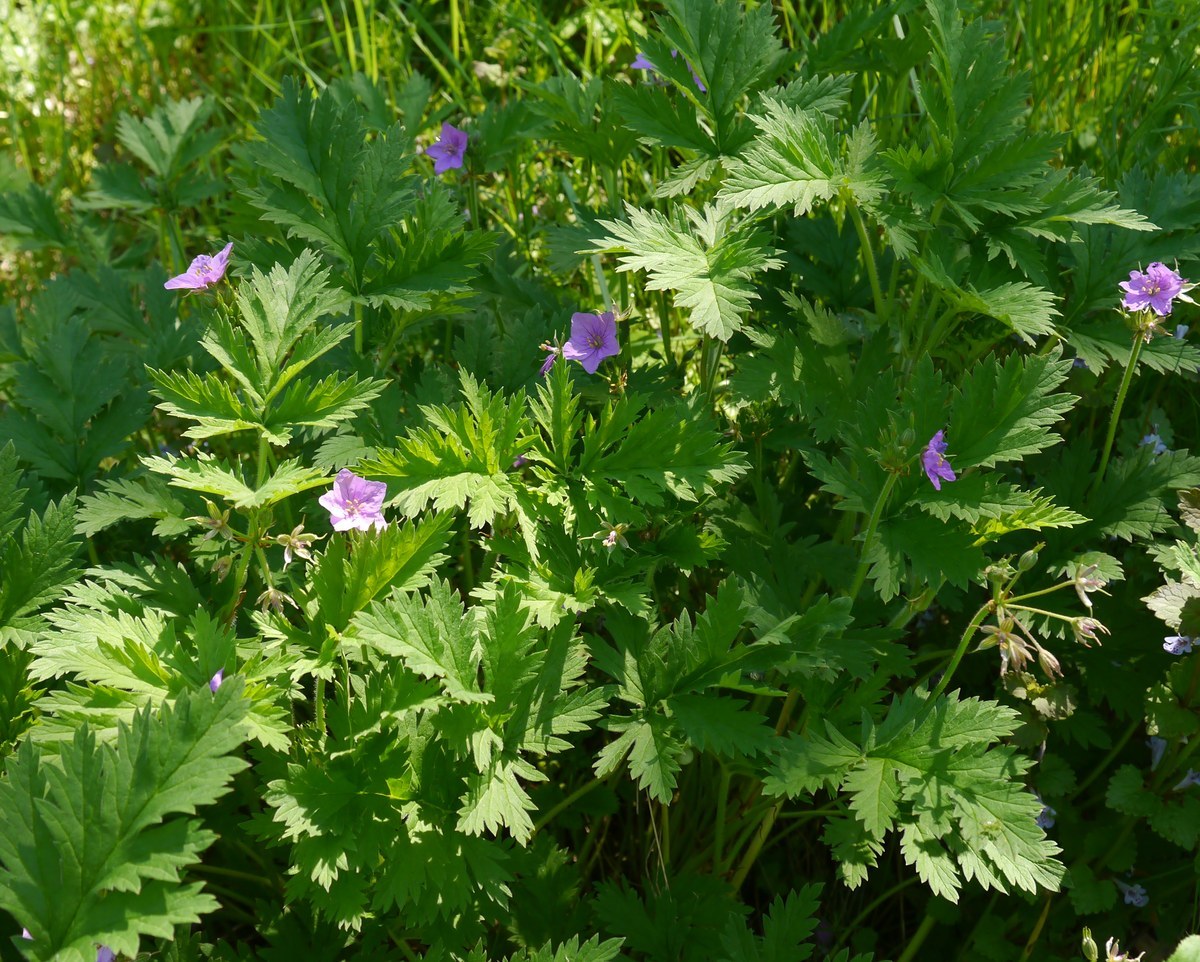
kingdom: Plantae
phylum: Tracheophyta
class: Magnoliopsida
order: Geraniales
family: Geraniaceae
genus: Erodium
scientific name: Erodium ruthenicum
